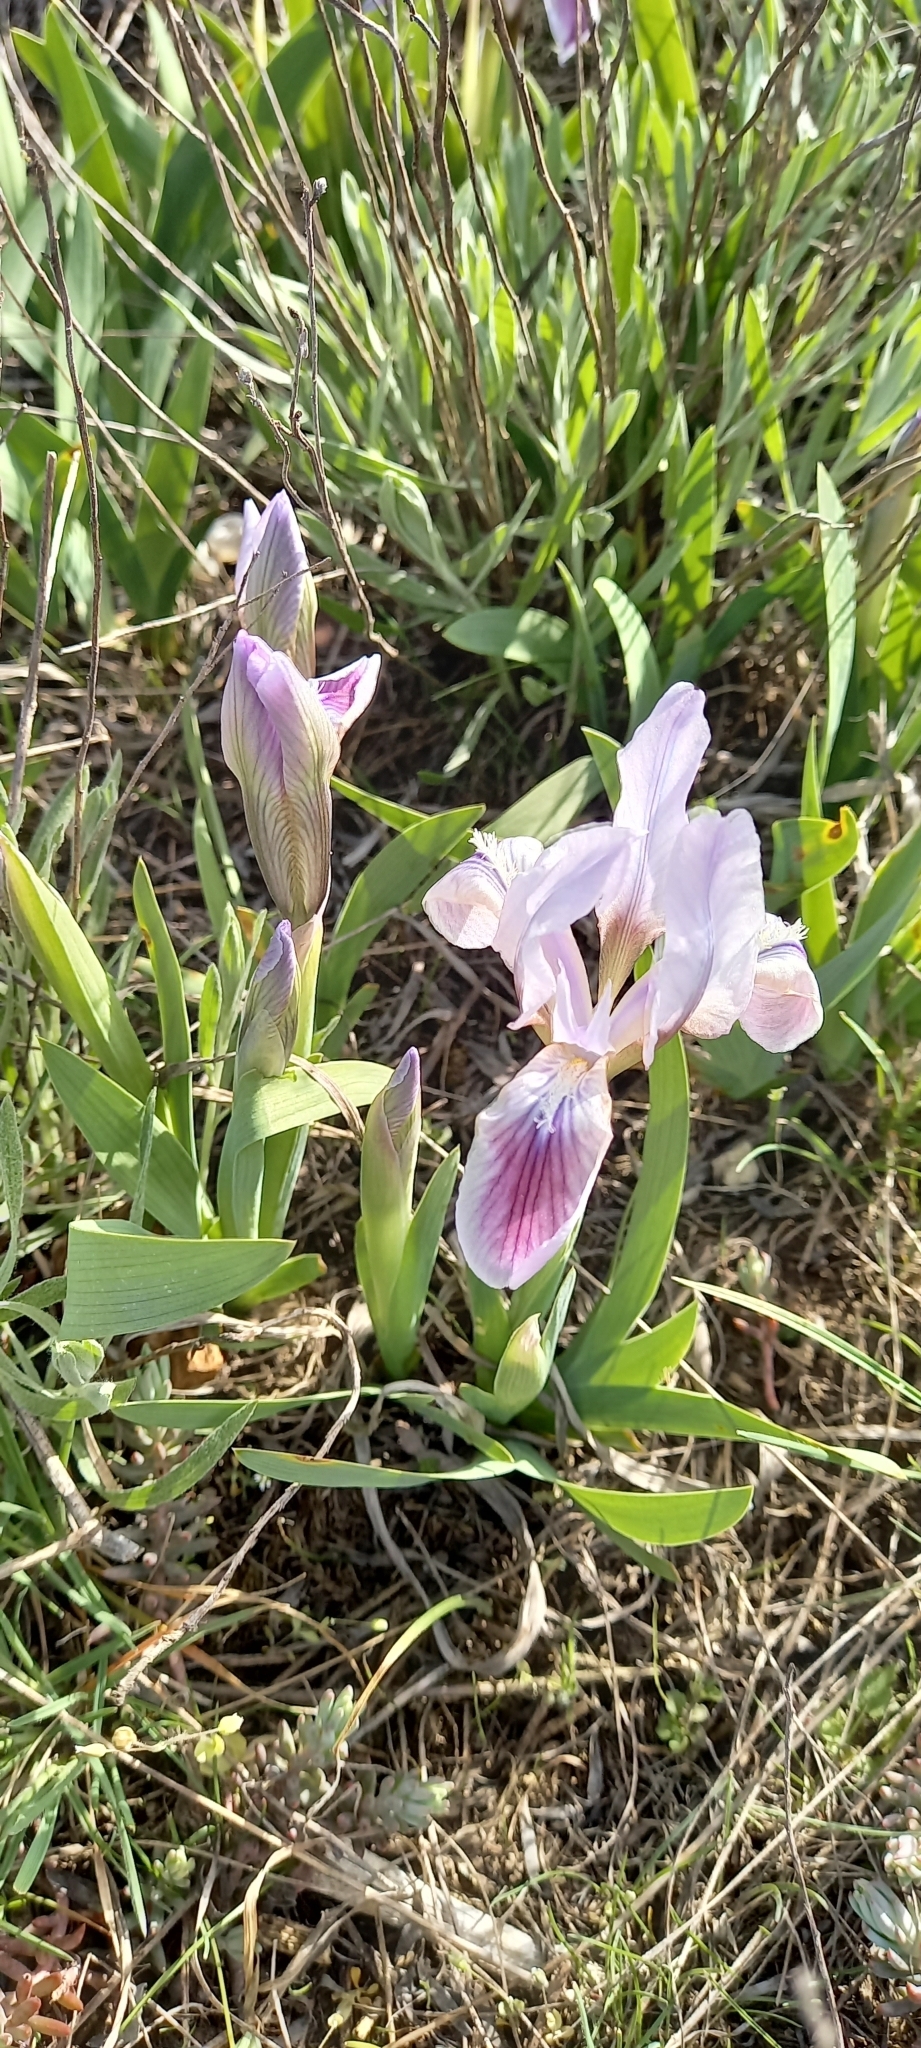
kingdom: Plantae
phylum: Tracheophyta
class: Liliopsida
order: Asparagales
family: Iridaceae
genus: Iris
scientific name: Iris pumila
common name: Dwarf iris
